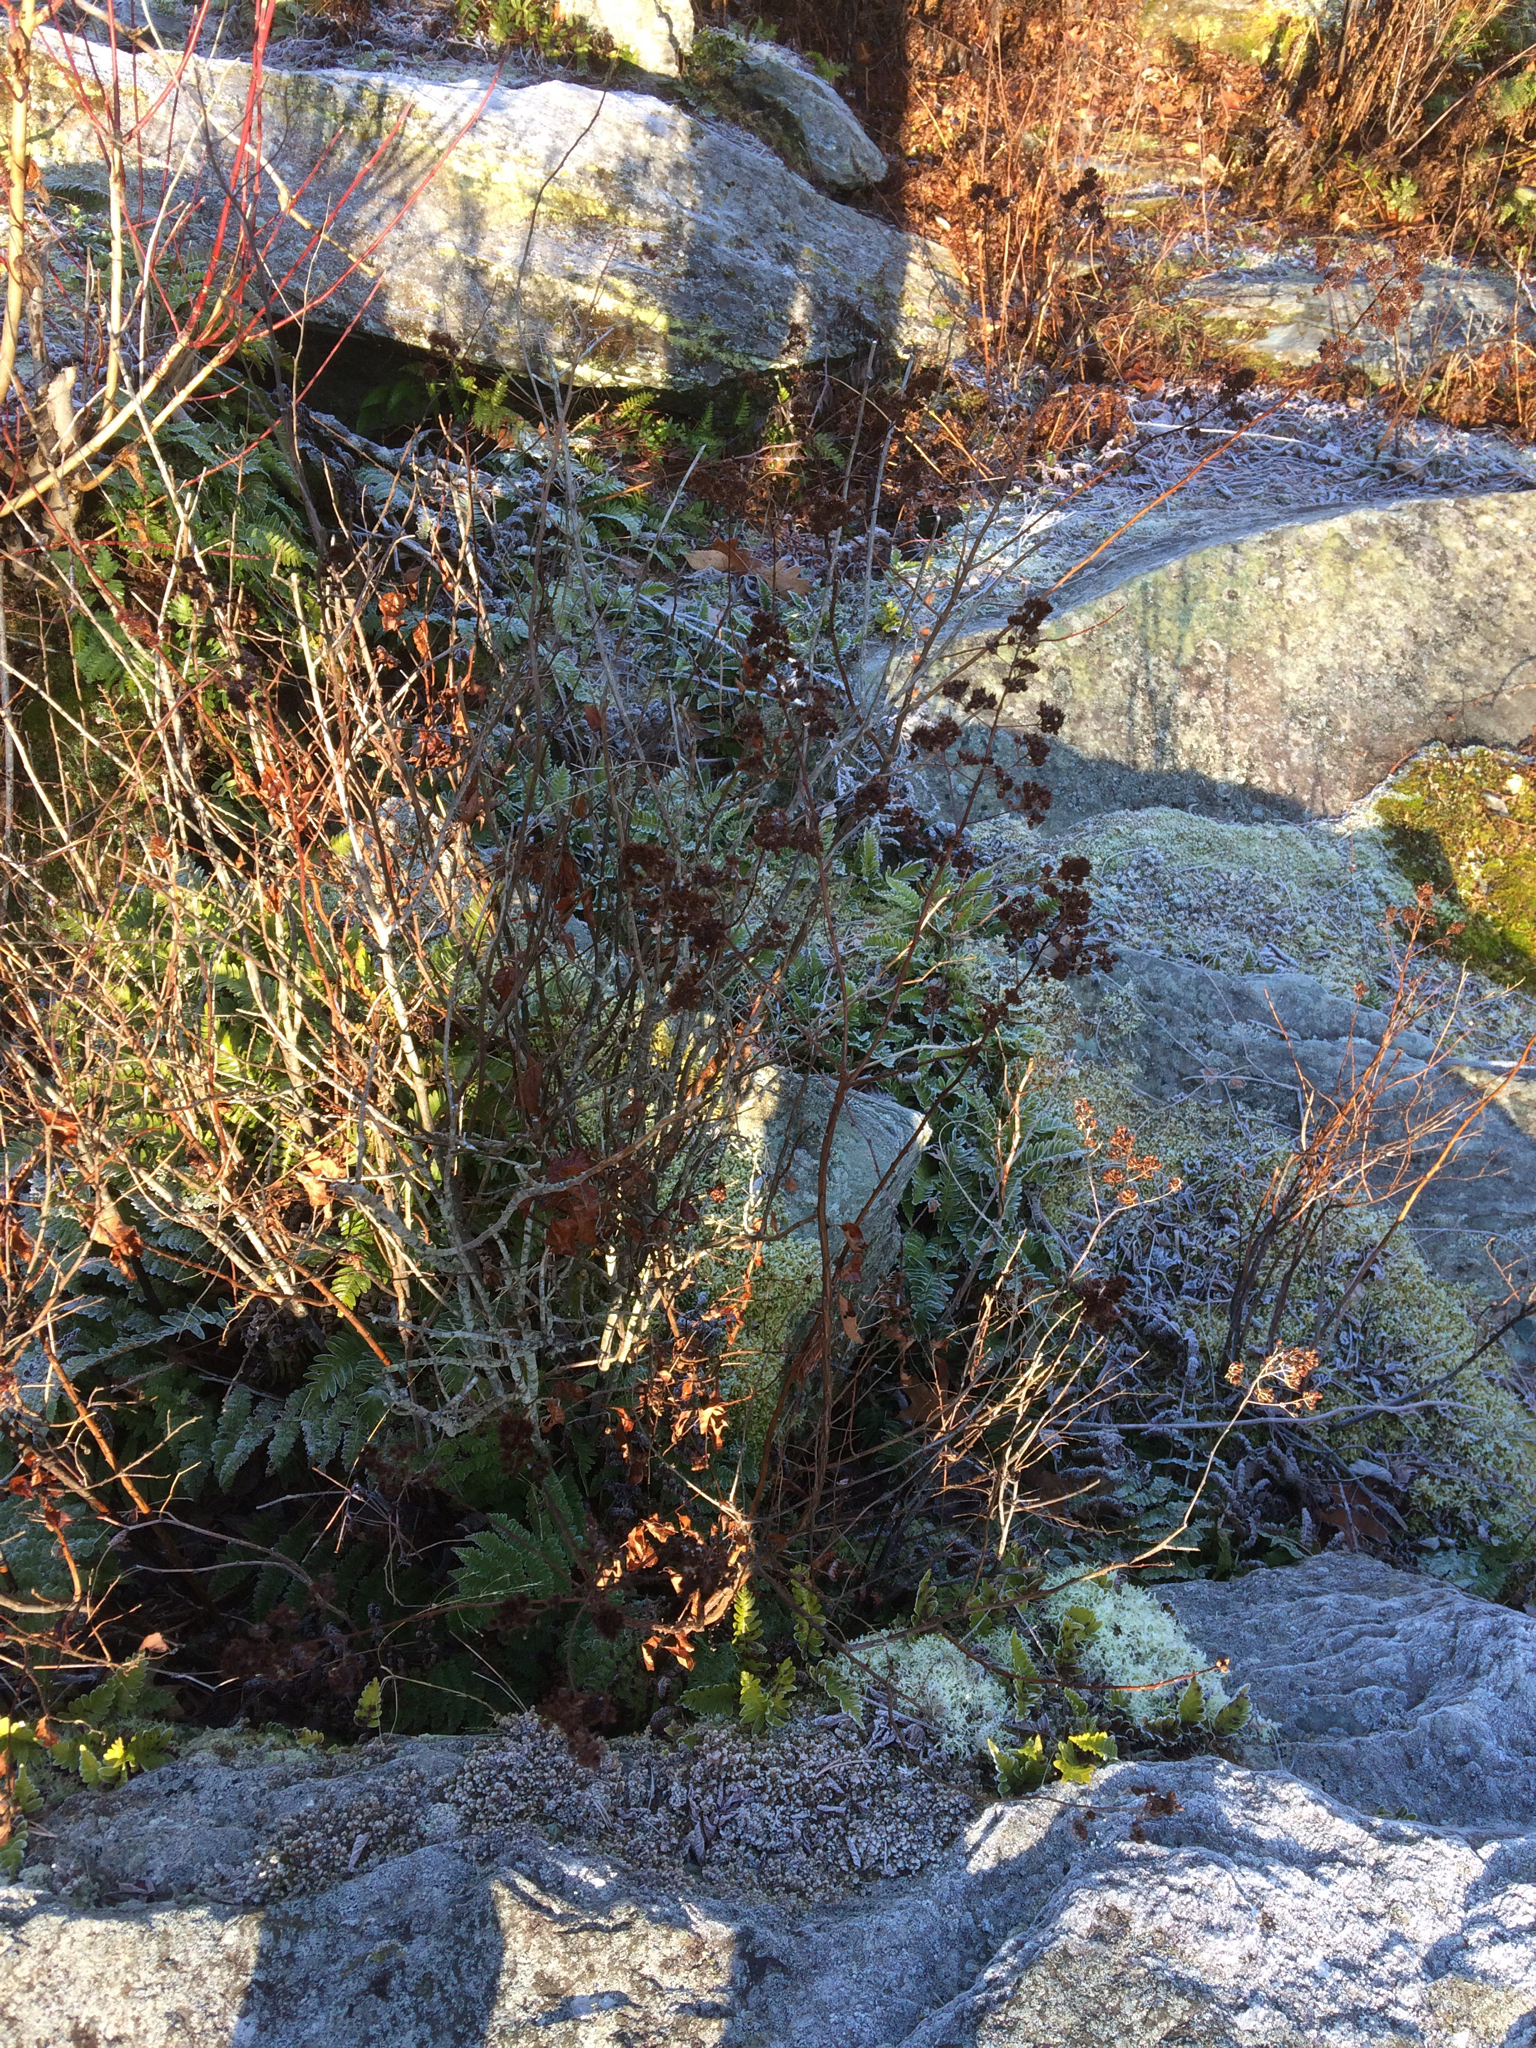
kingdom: Plantae
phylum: Tracheophyta
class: Magnoliopsida
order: Rosales
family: Rosaceae
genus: Spiraea
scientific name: Spiraea alba
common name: Pale bridewort
